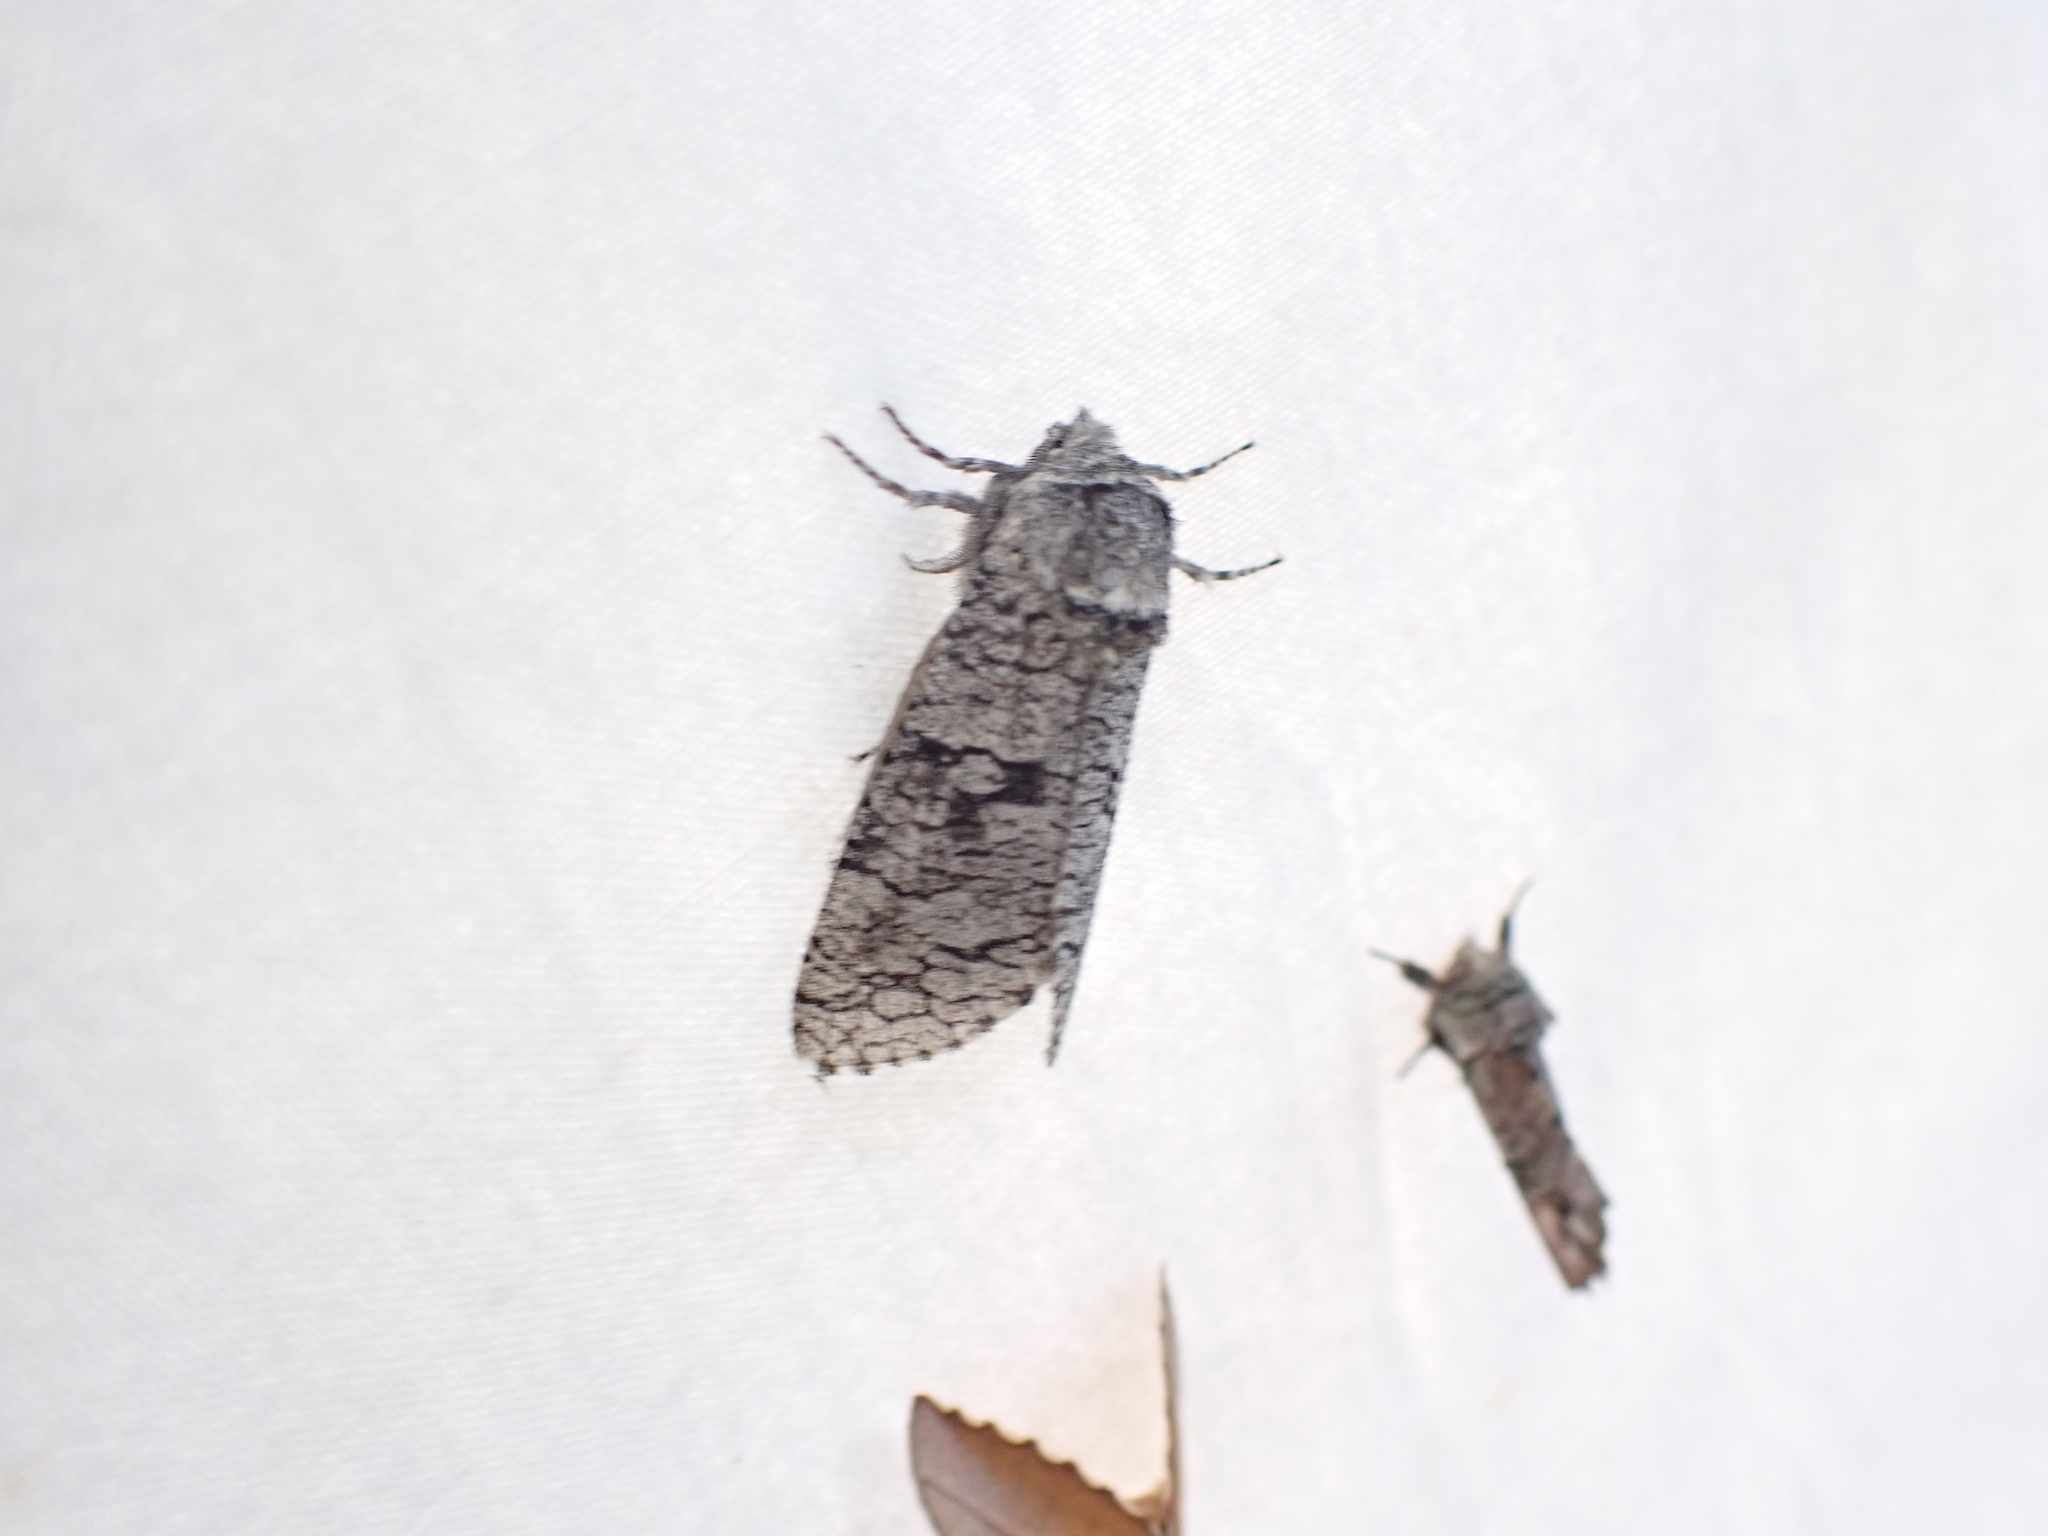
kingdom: Animalia
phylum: Arthropoda
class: Insecta
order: Lepidoptera
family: Cossidae
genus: Acossus
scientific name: Acossus populi
